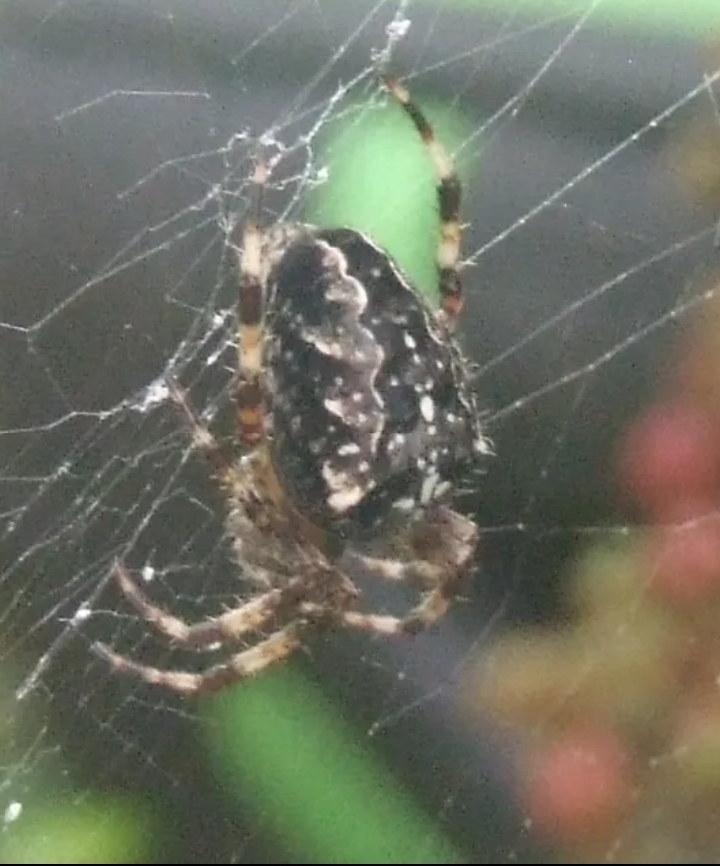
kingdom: Animalia
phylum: Arthropoda
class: Arachnida
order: Araneae
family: Araneidae
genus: Araneus
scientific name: Araneus diadematus
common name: Cross orbweaver
